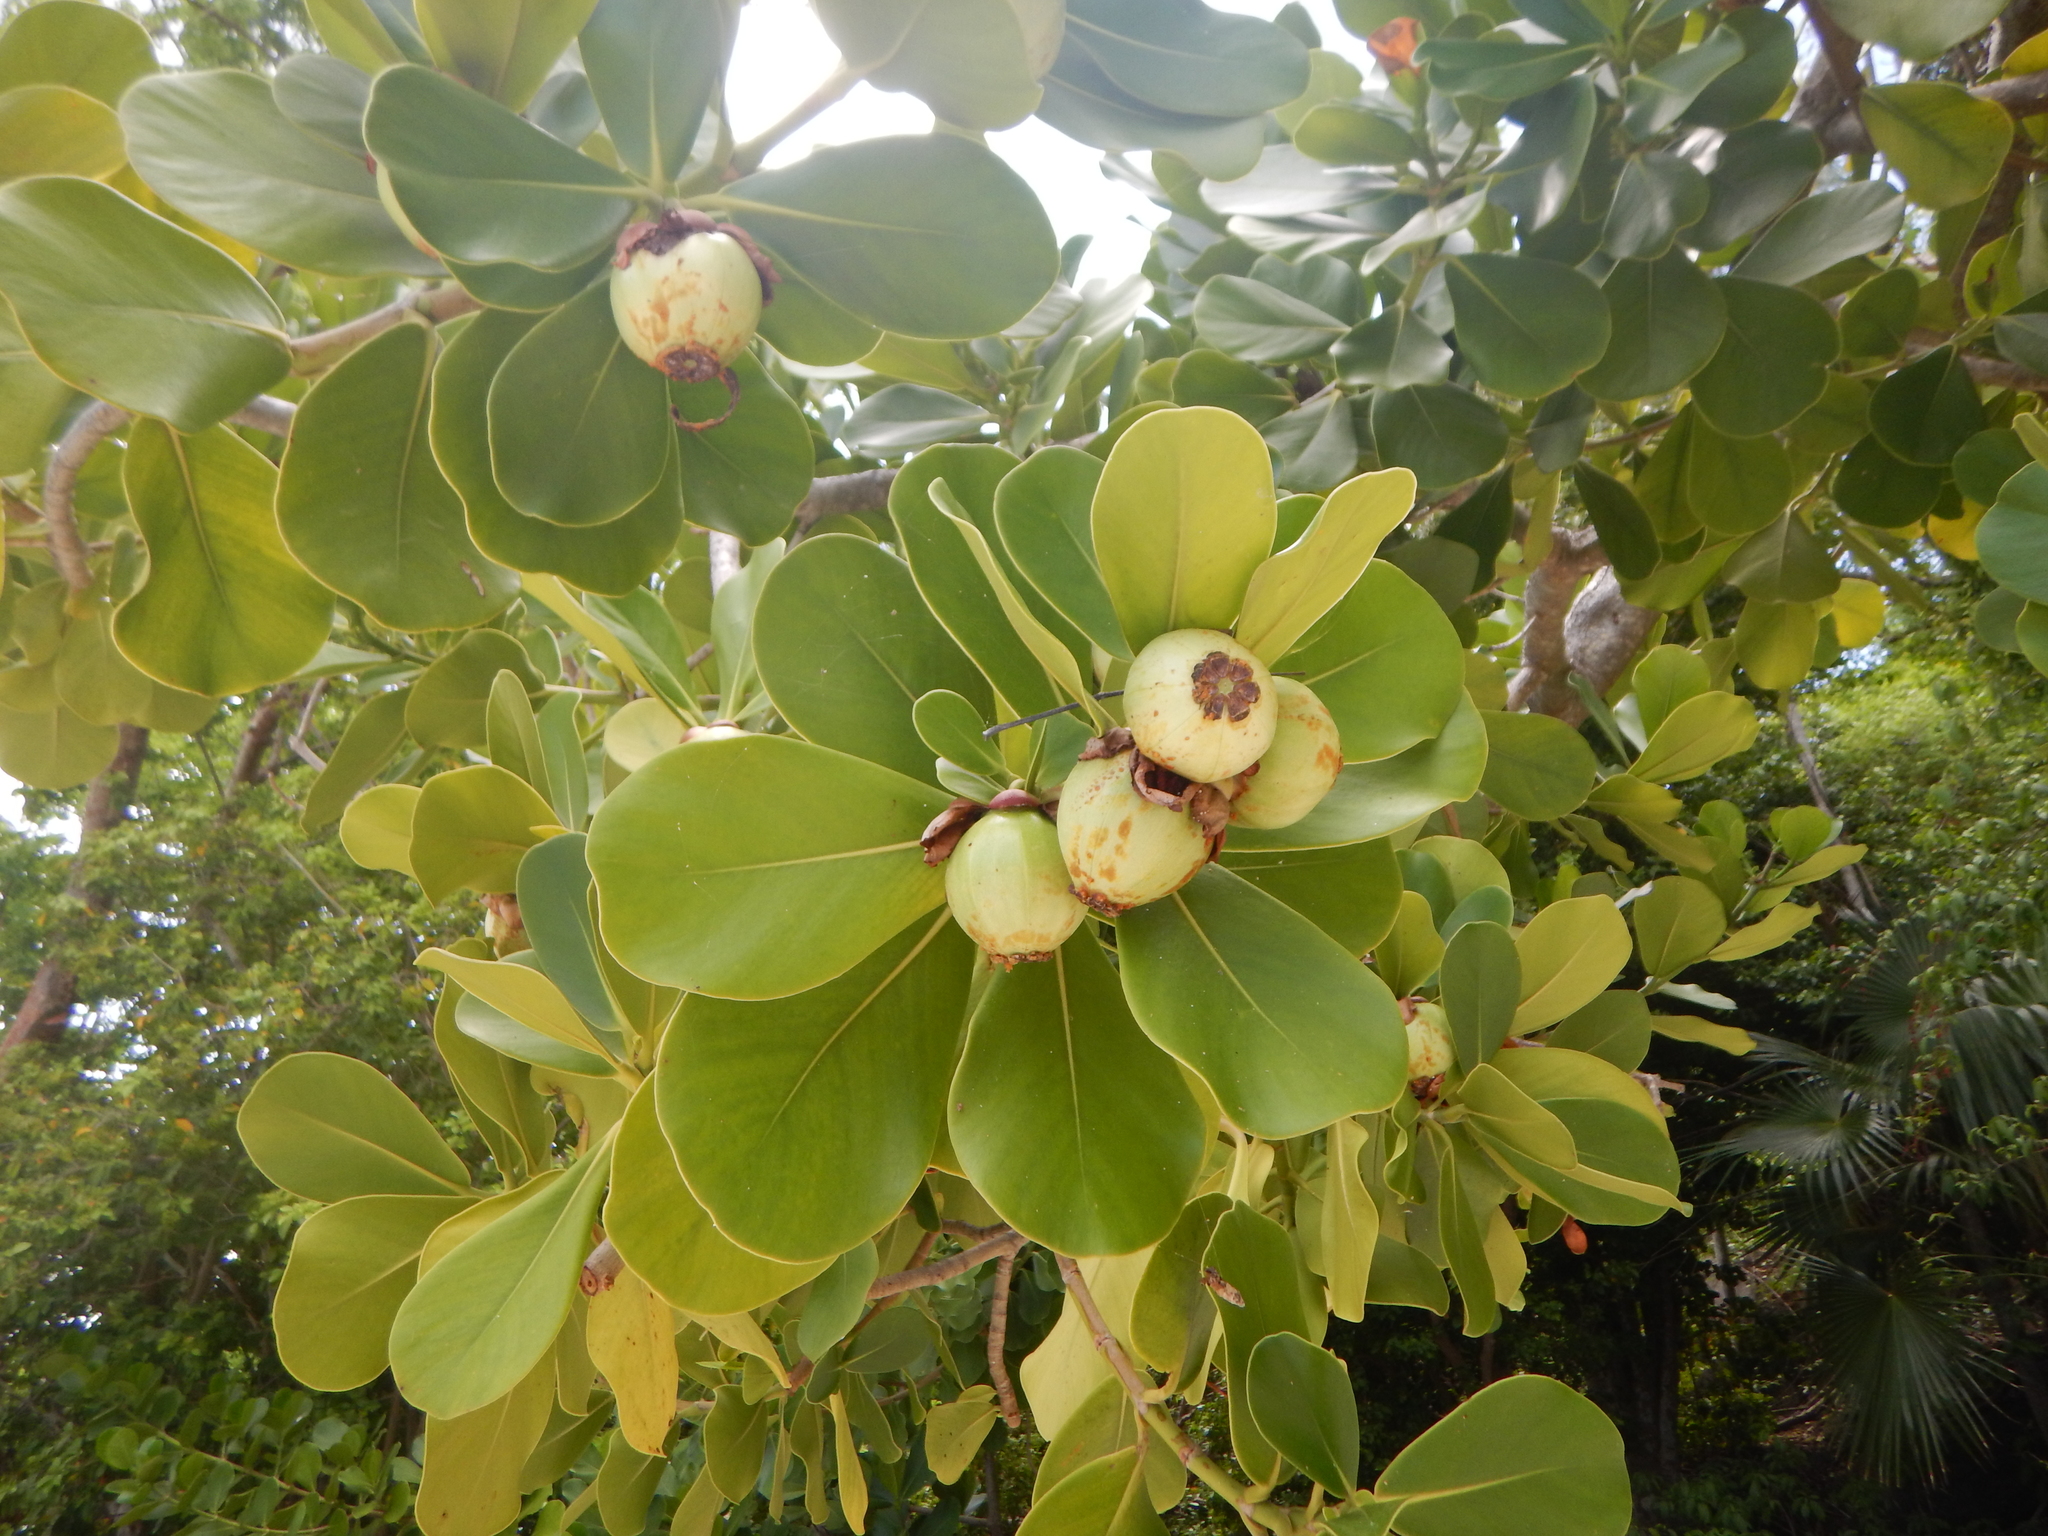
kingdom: Plantae
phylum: Tracheophyta
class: Magnoliopsida
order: Malpighiales
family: Clusiaceae
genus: Clusia
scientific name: Clusia rosea
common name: Scotch attorney
